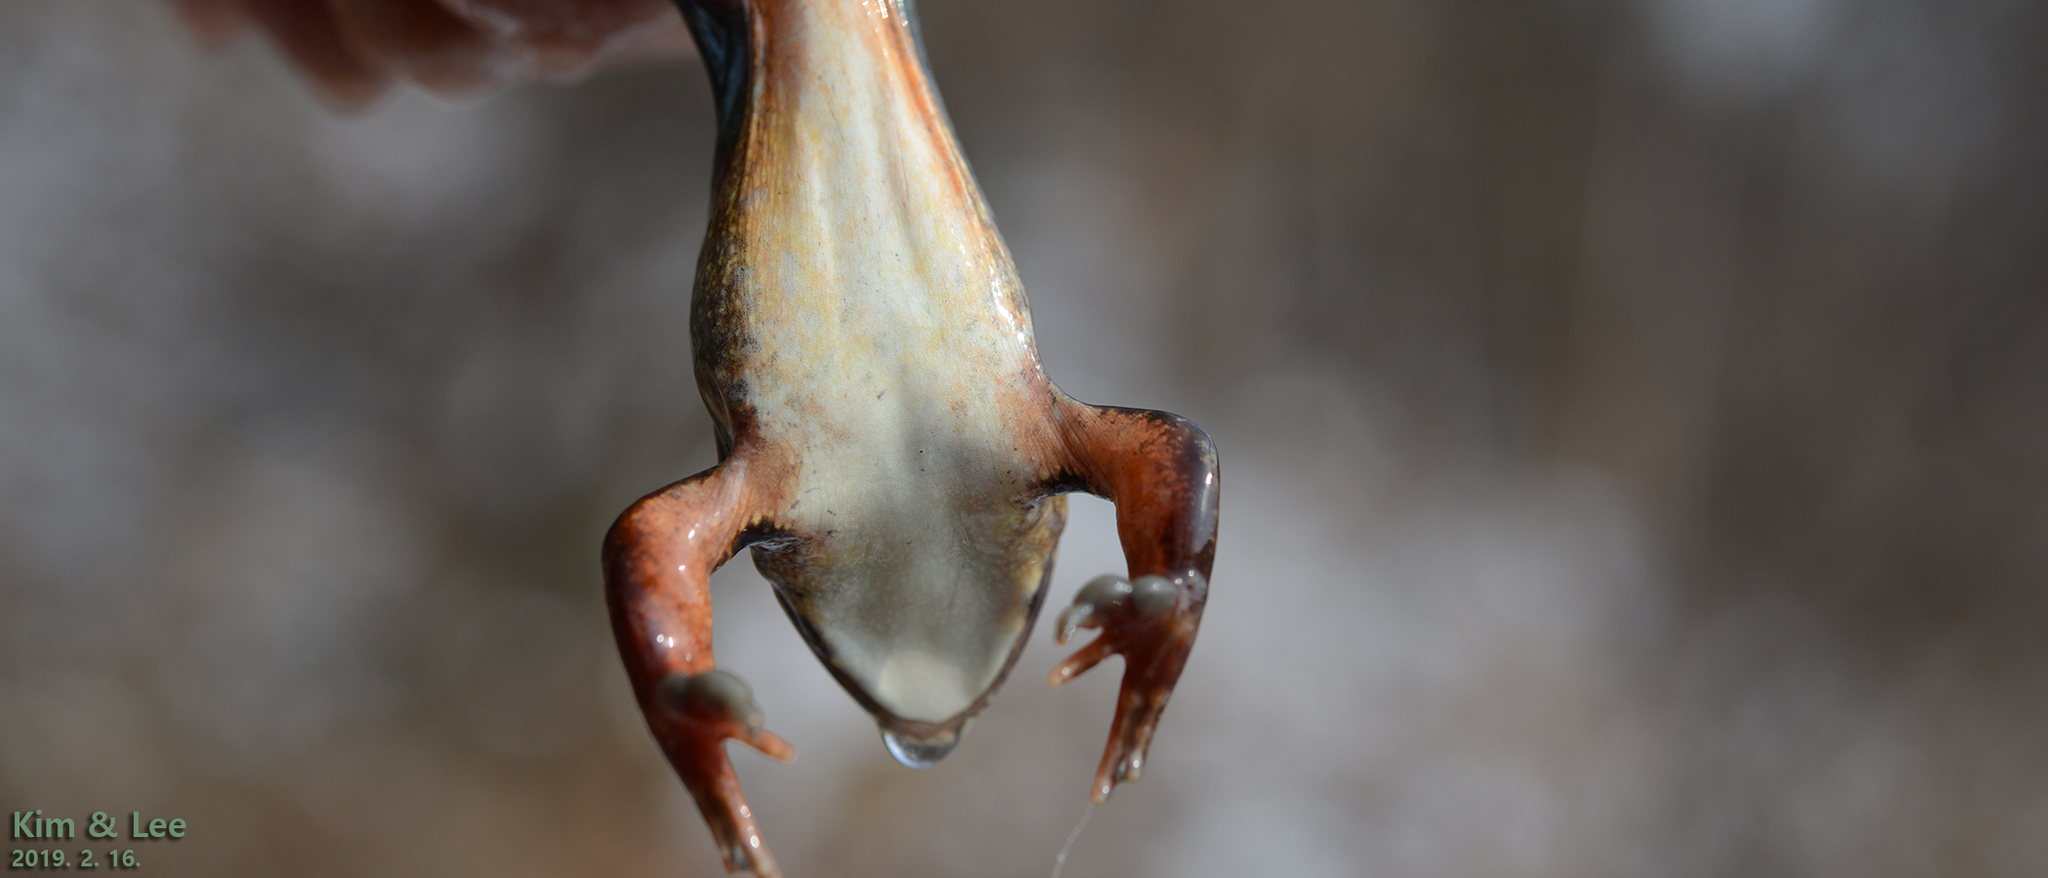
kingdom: Animalia
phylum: Chordata
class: Amphibia
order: Anura
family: Ranidae
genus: Rana
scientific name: Rana dybowskii
